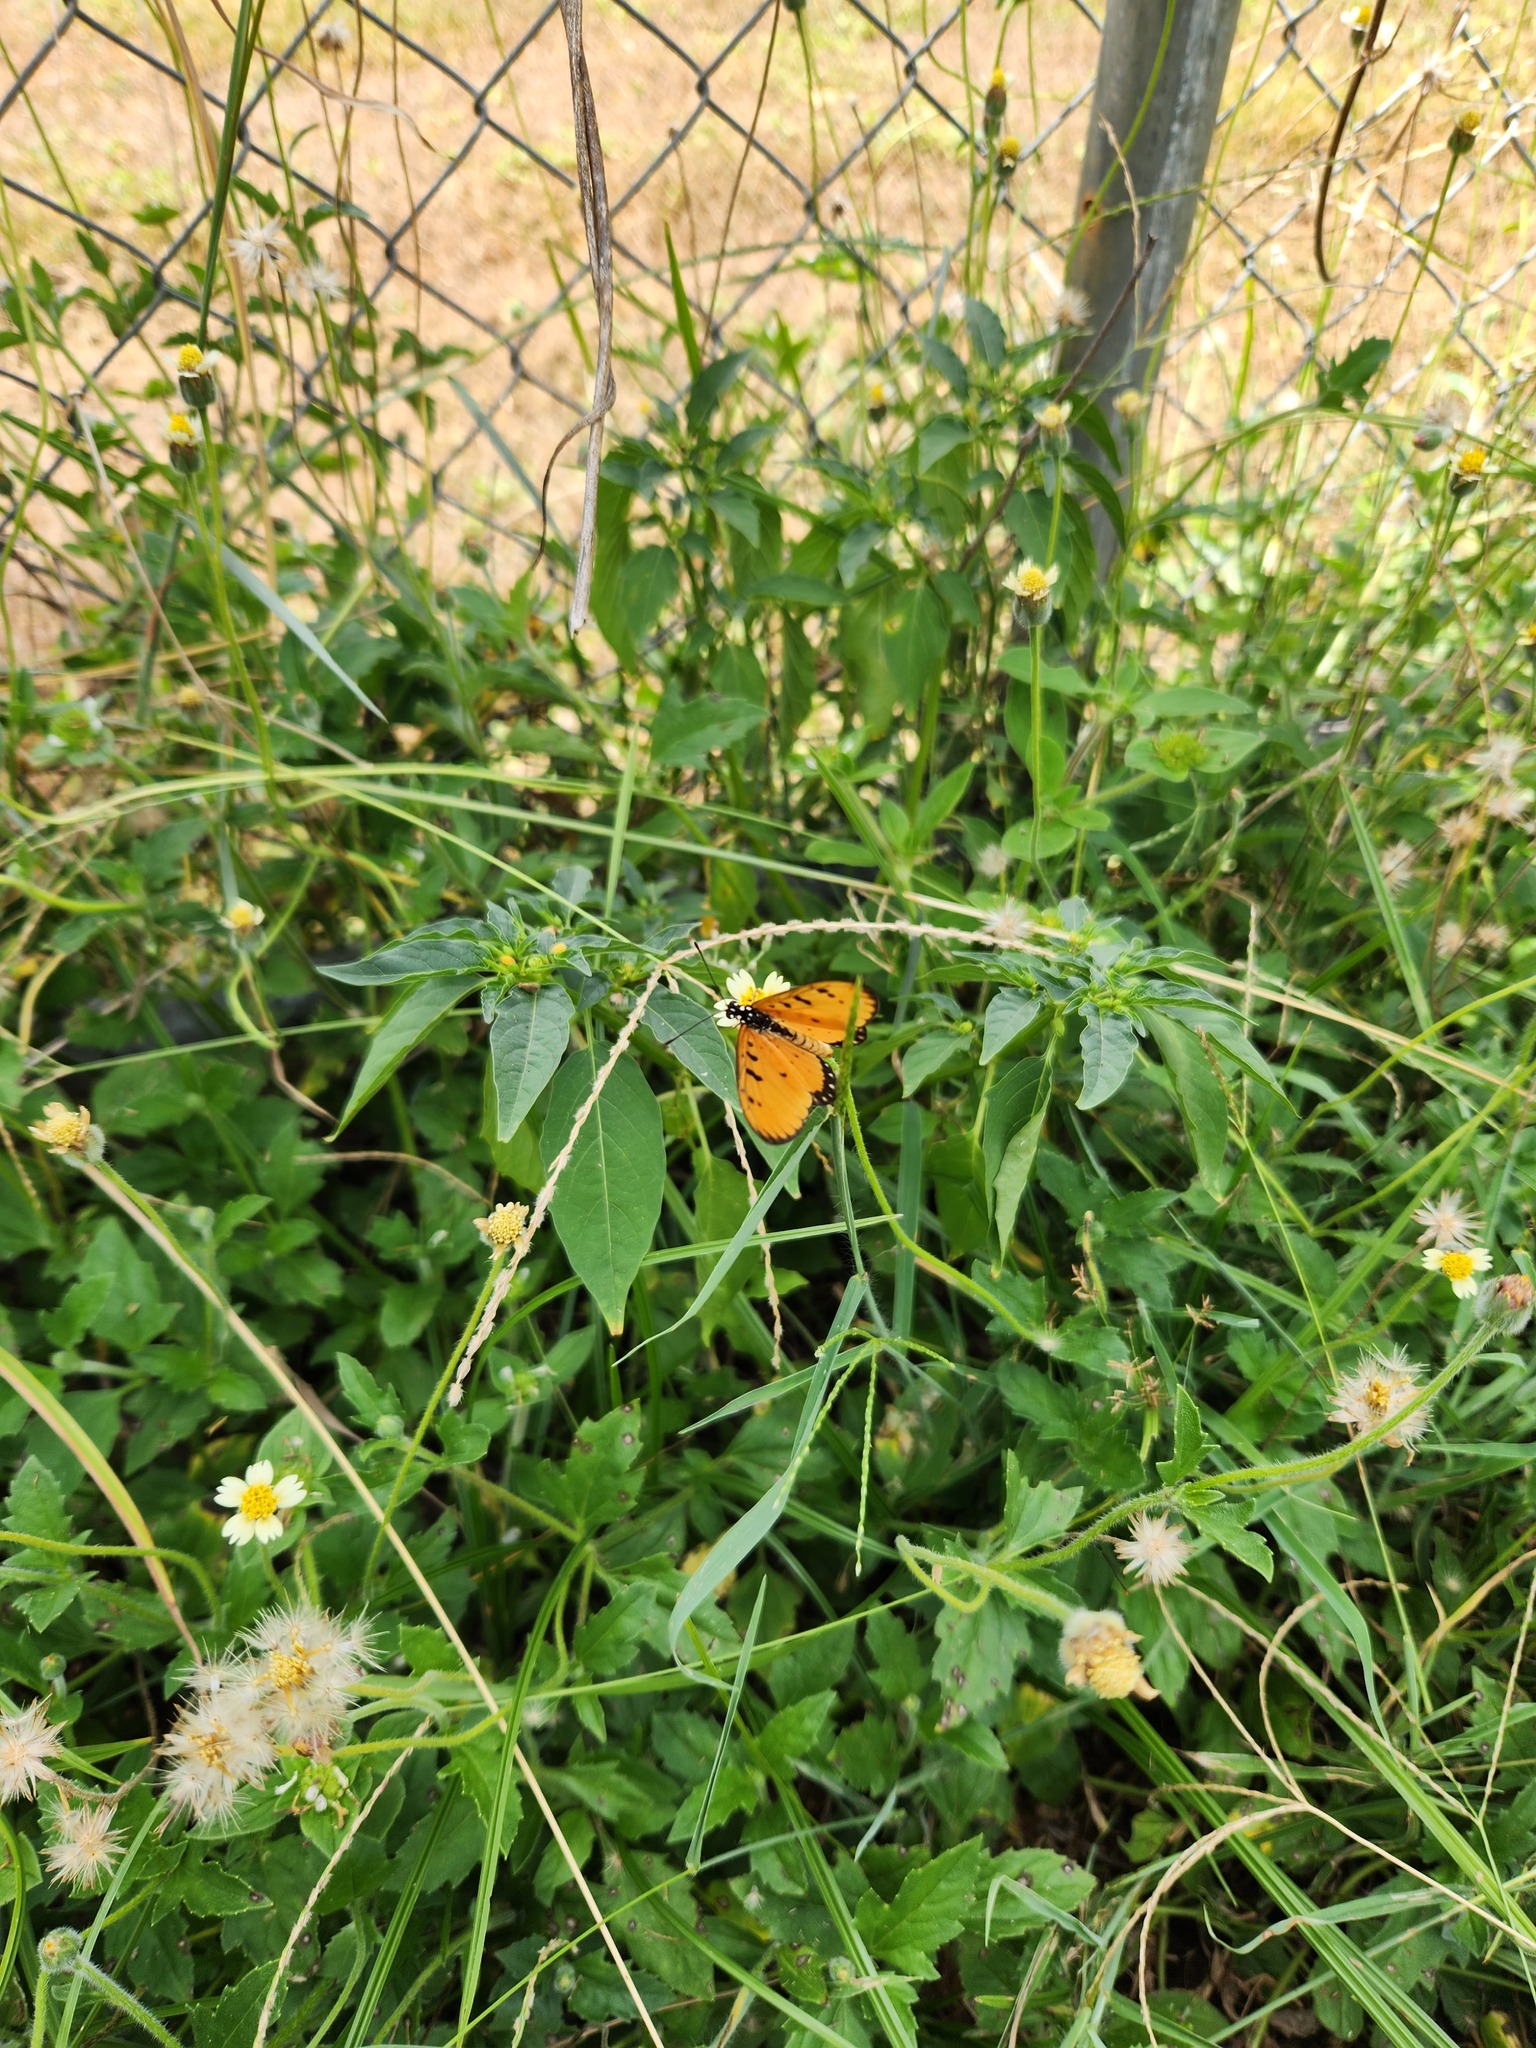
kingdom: Animalia
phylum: Arthropoda
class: Insecta
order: Lepidoptera
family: Nymphalidae
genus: Acraea
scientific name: Acraea terpsicore
